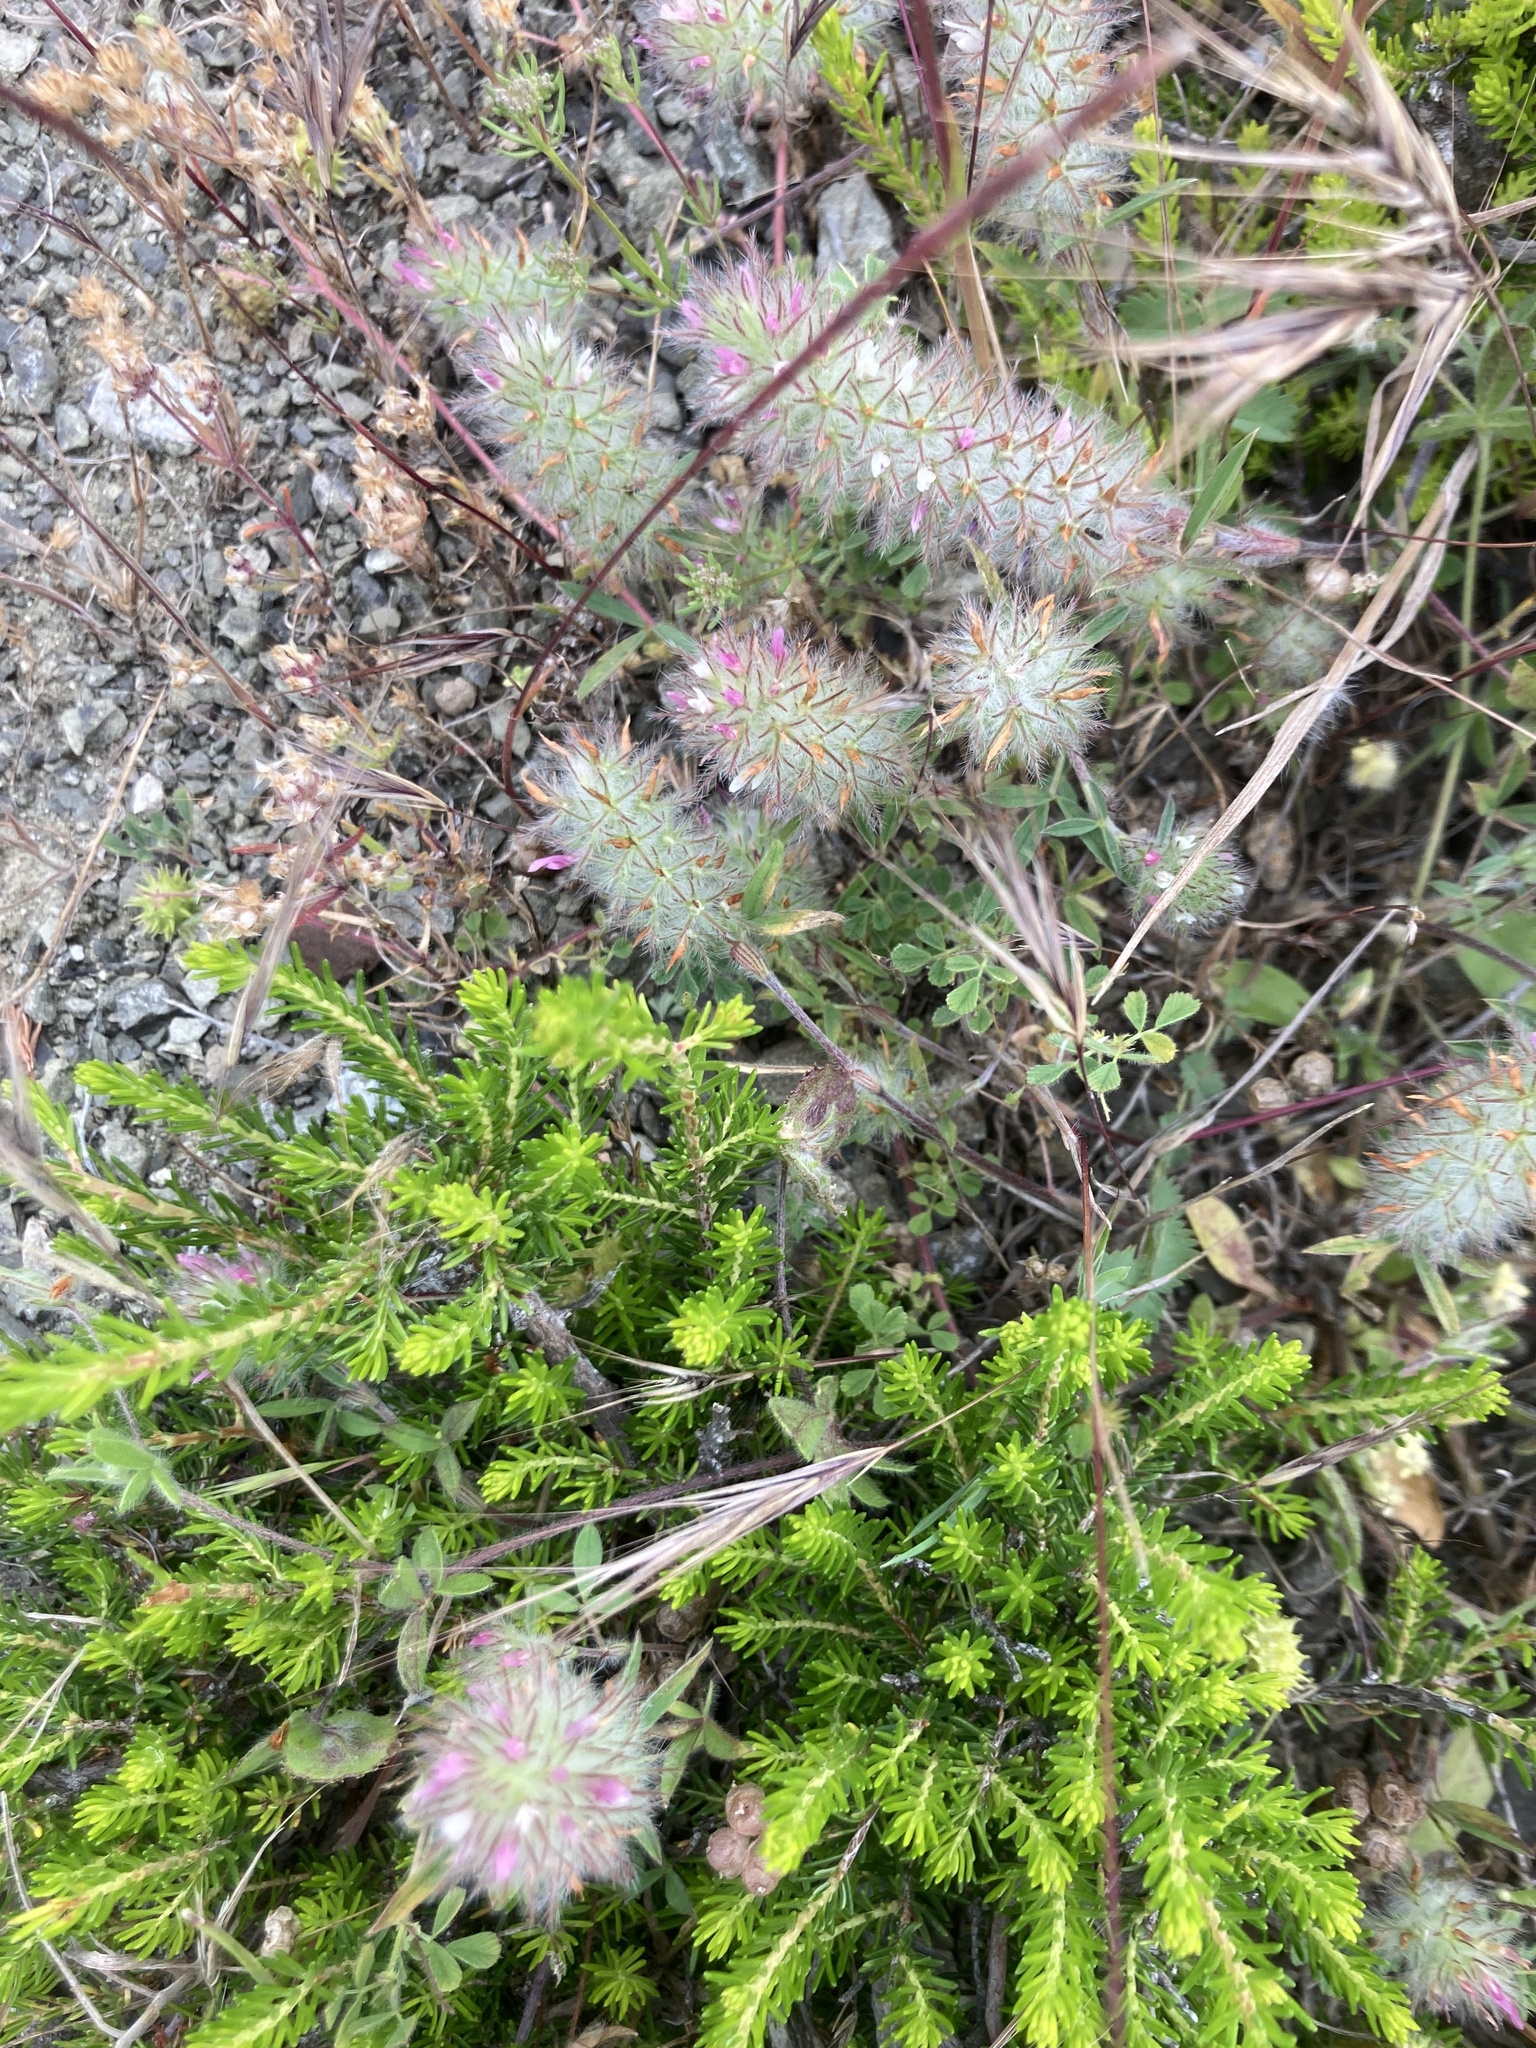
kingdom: Plantae
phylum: Tracheophyta
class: Magnoliopsida
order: Ericales
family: Ericaceae
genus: Erica
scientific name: Erica manipuliflora
